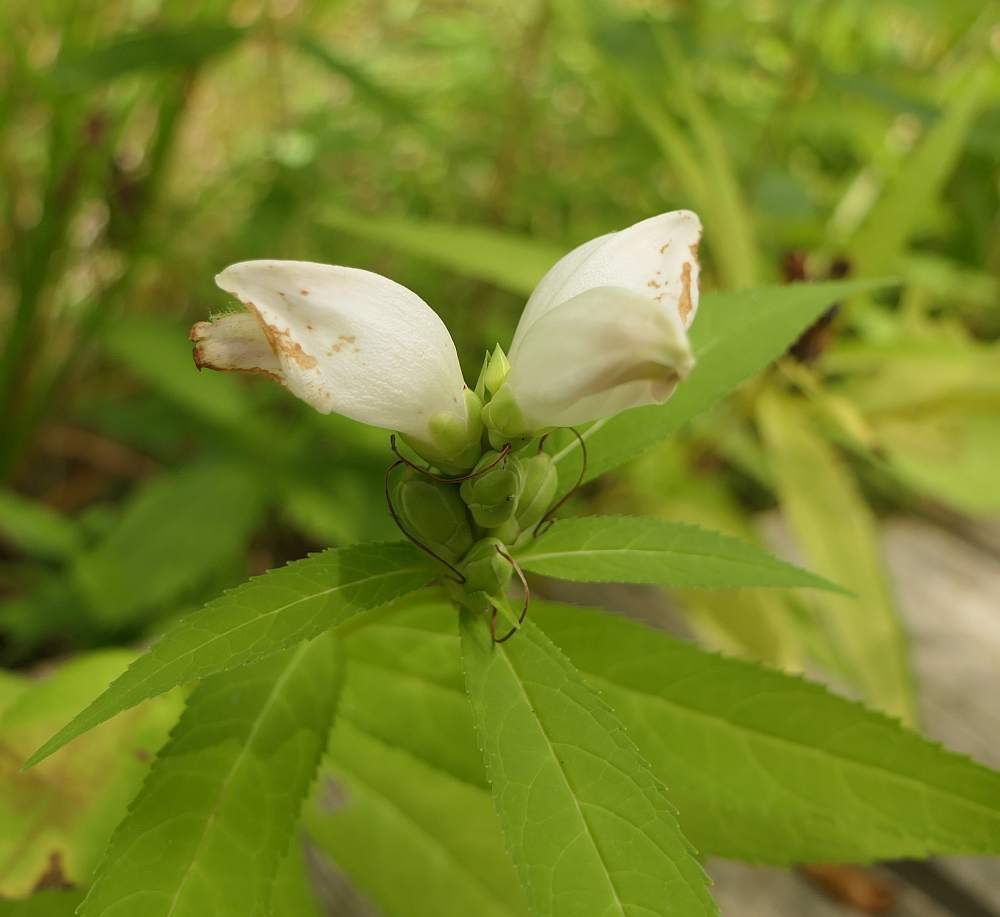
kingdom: Plantae
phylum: Tracheophyta
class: Magnoliopsida
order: Lamiales
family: Plantaginaceae
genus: Chelone
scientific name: Chelone glabra
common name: Snakehead
